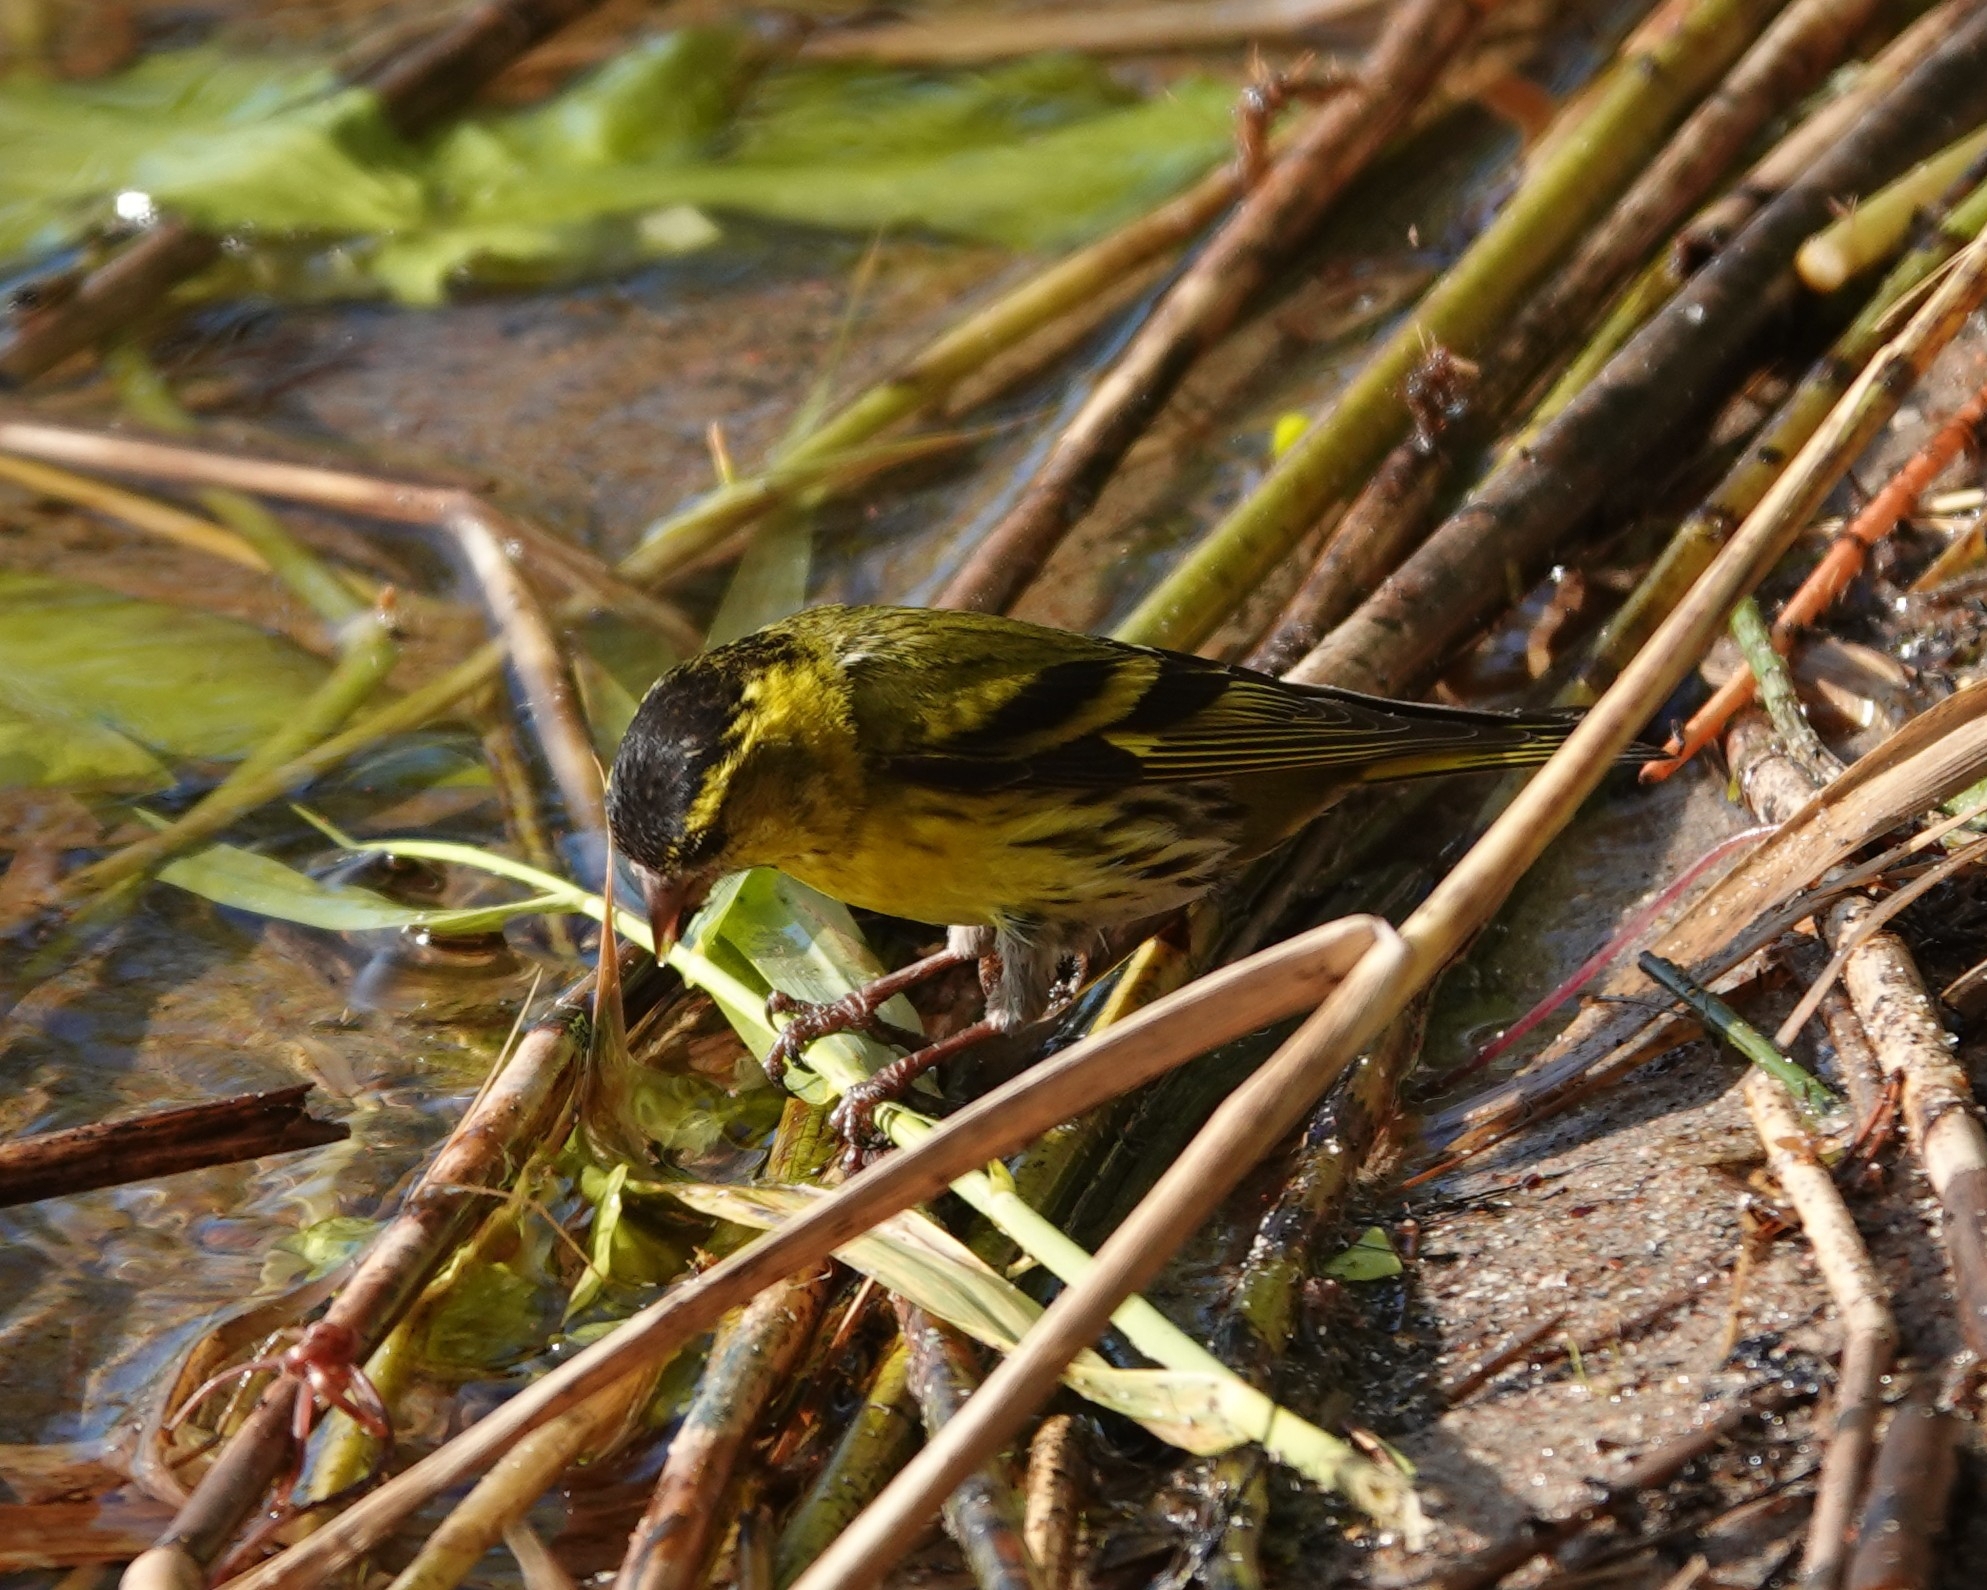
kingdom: Animalia
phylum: Chordata
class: Aves
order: Passeriformes
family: Fringillidae
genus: Spinus
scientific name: Spinus spinus
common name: Eurasian siskin
